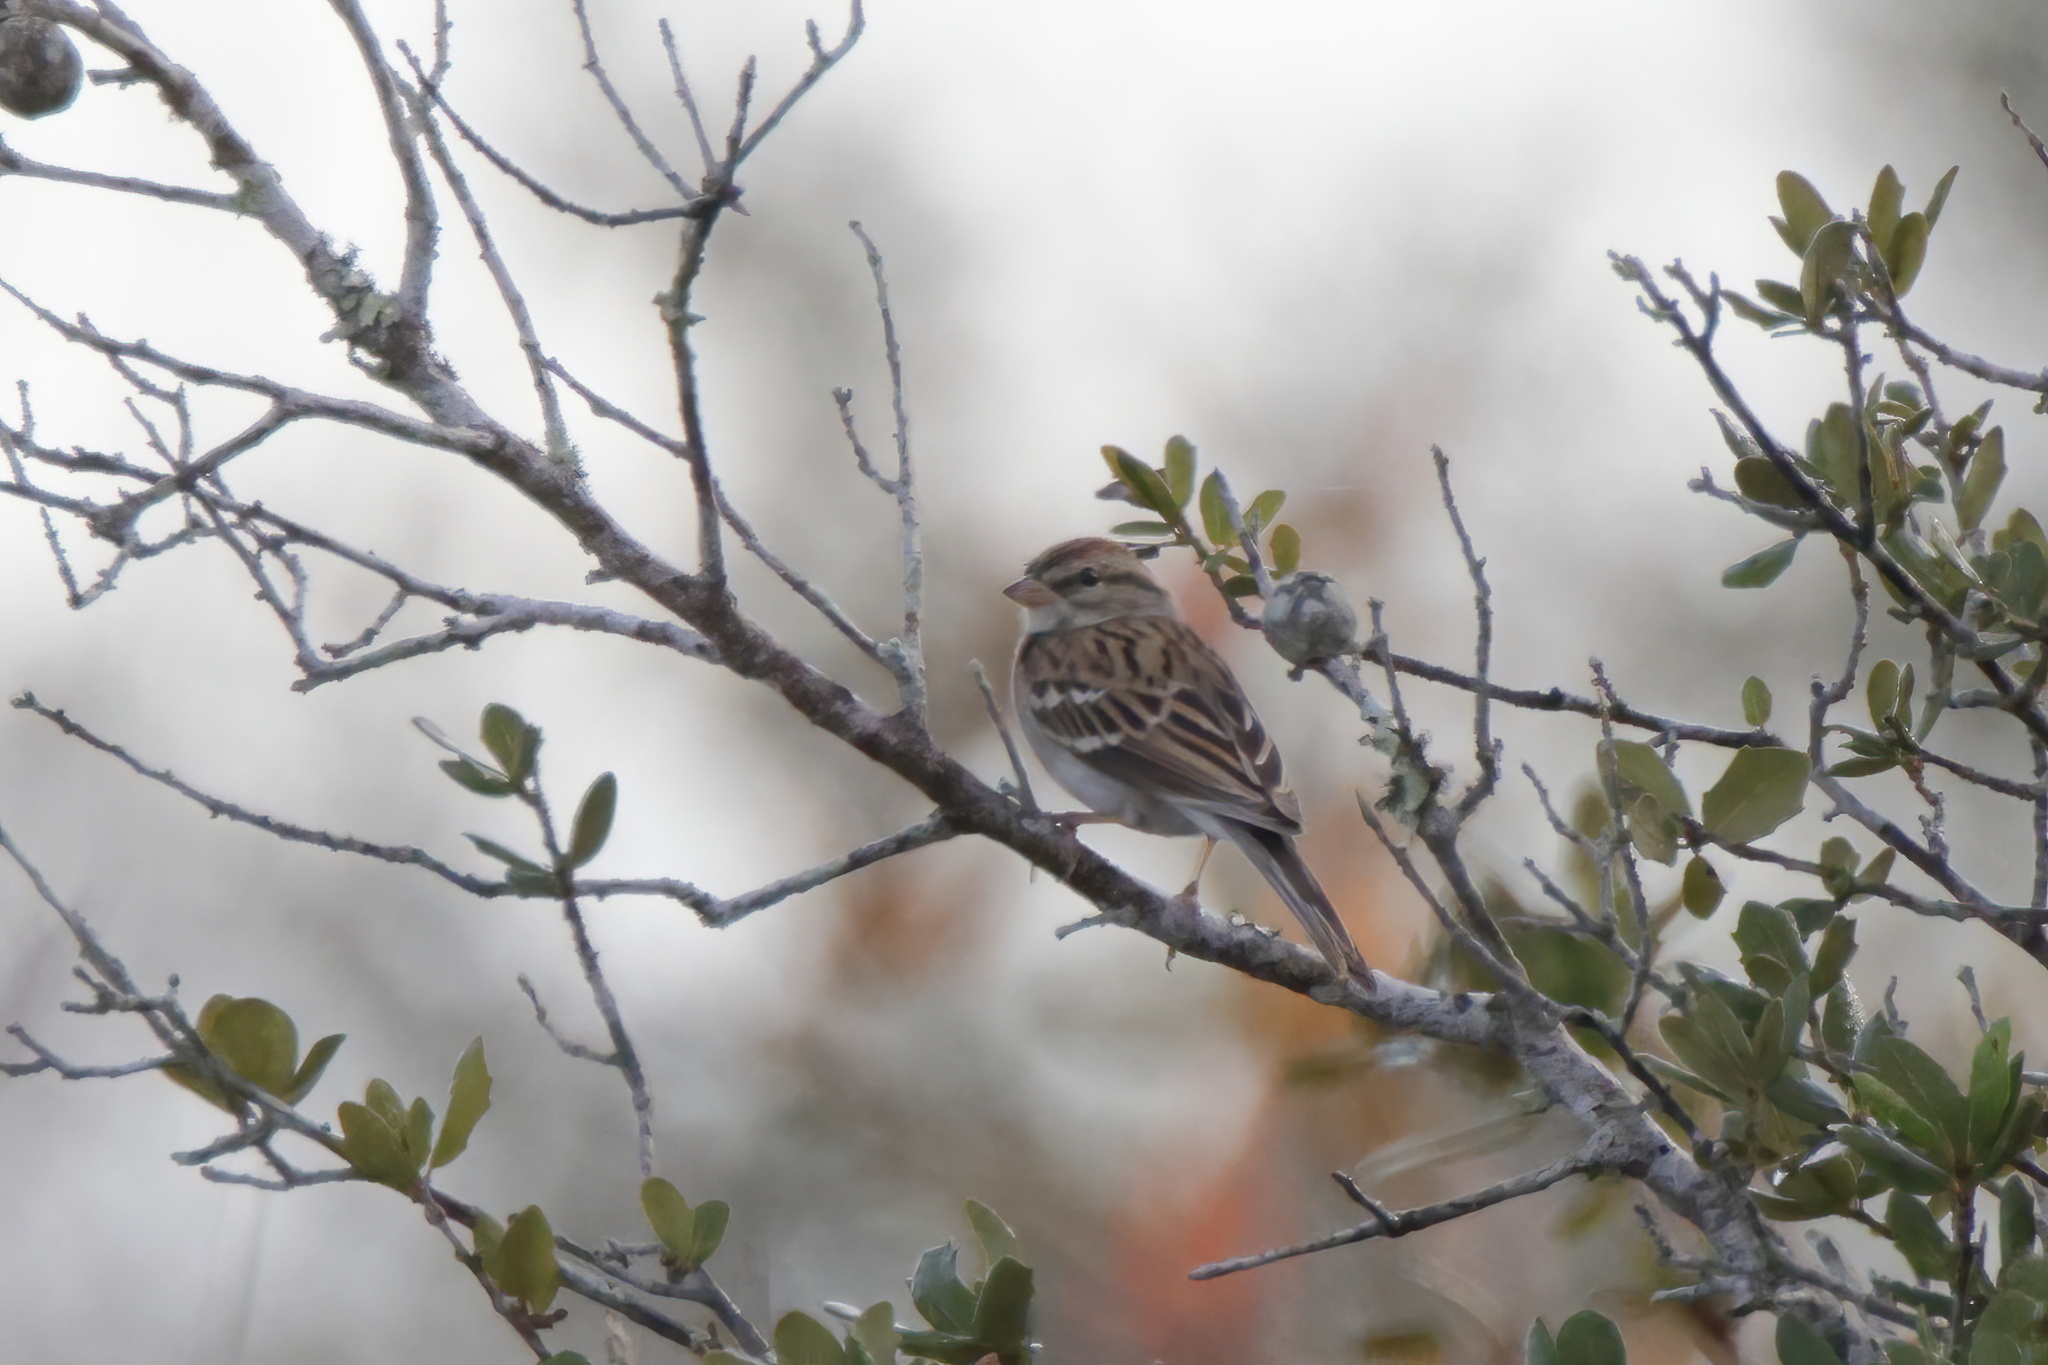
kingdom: Animalia
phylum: Chordata
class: Aves
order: Passeriformes
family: Passerellidae
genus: Spizella
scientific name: Spizella passerina
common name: Chipping sparrow
